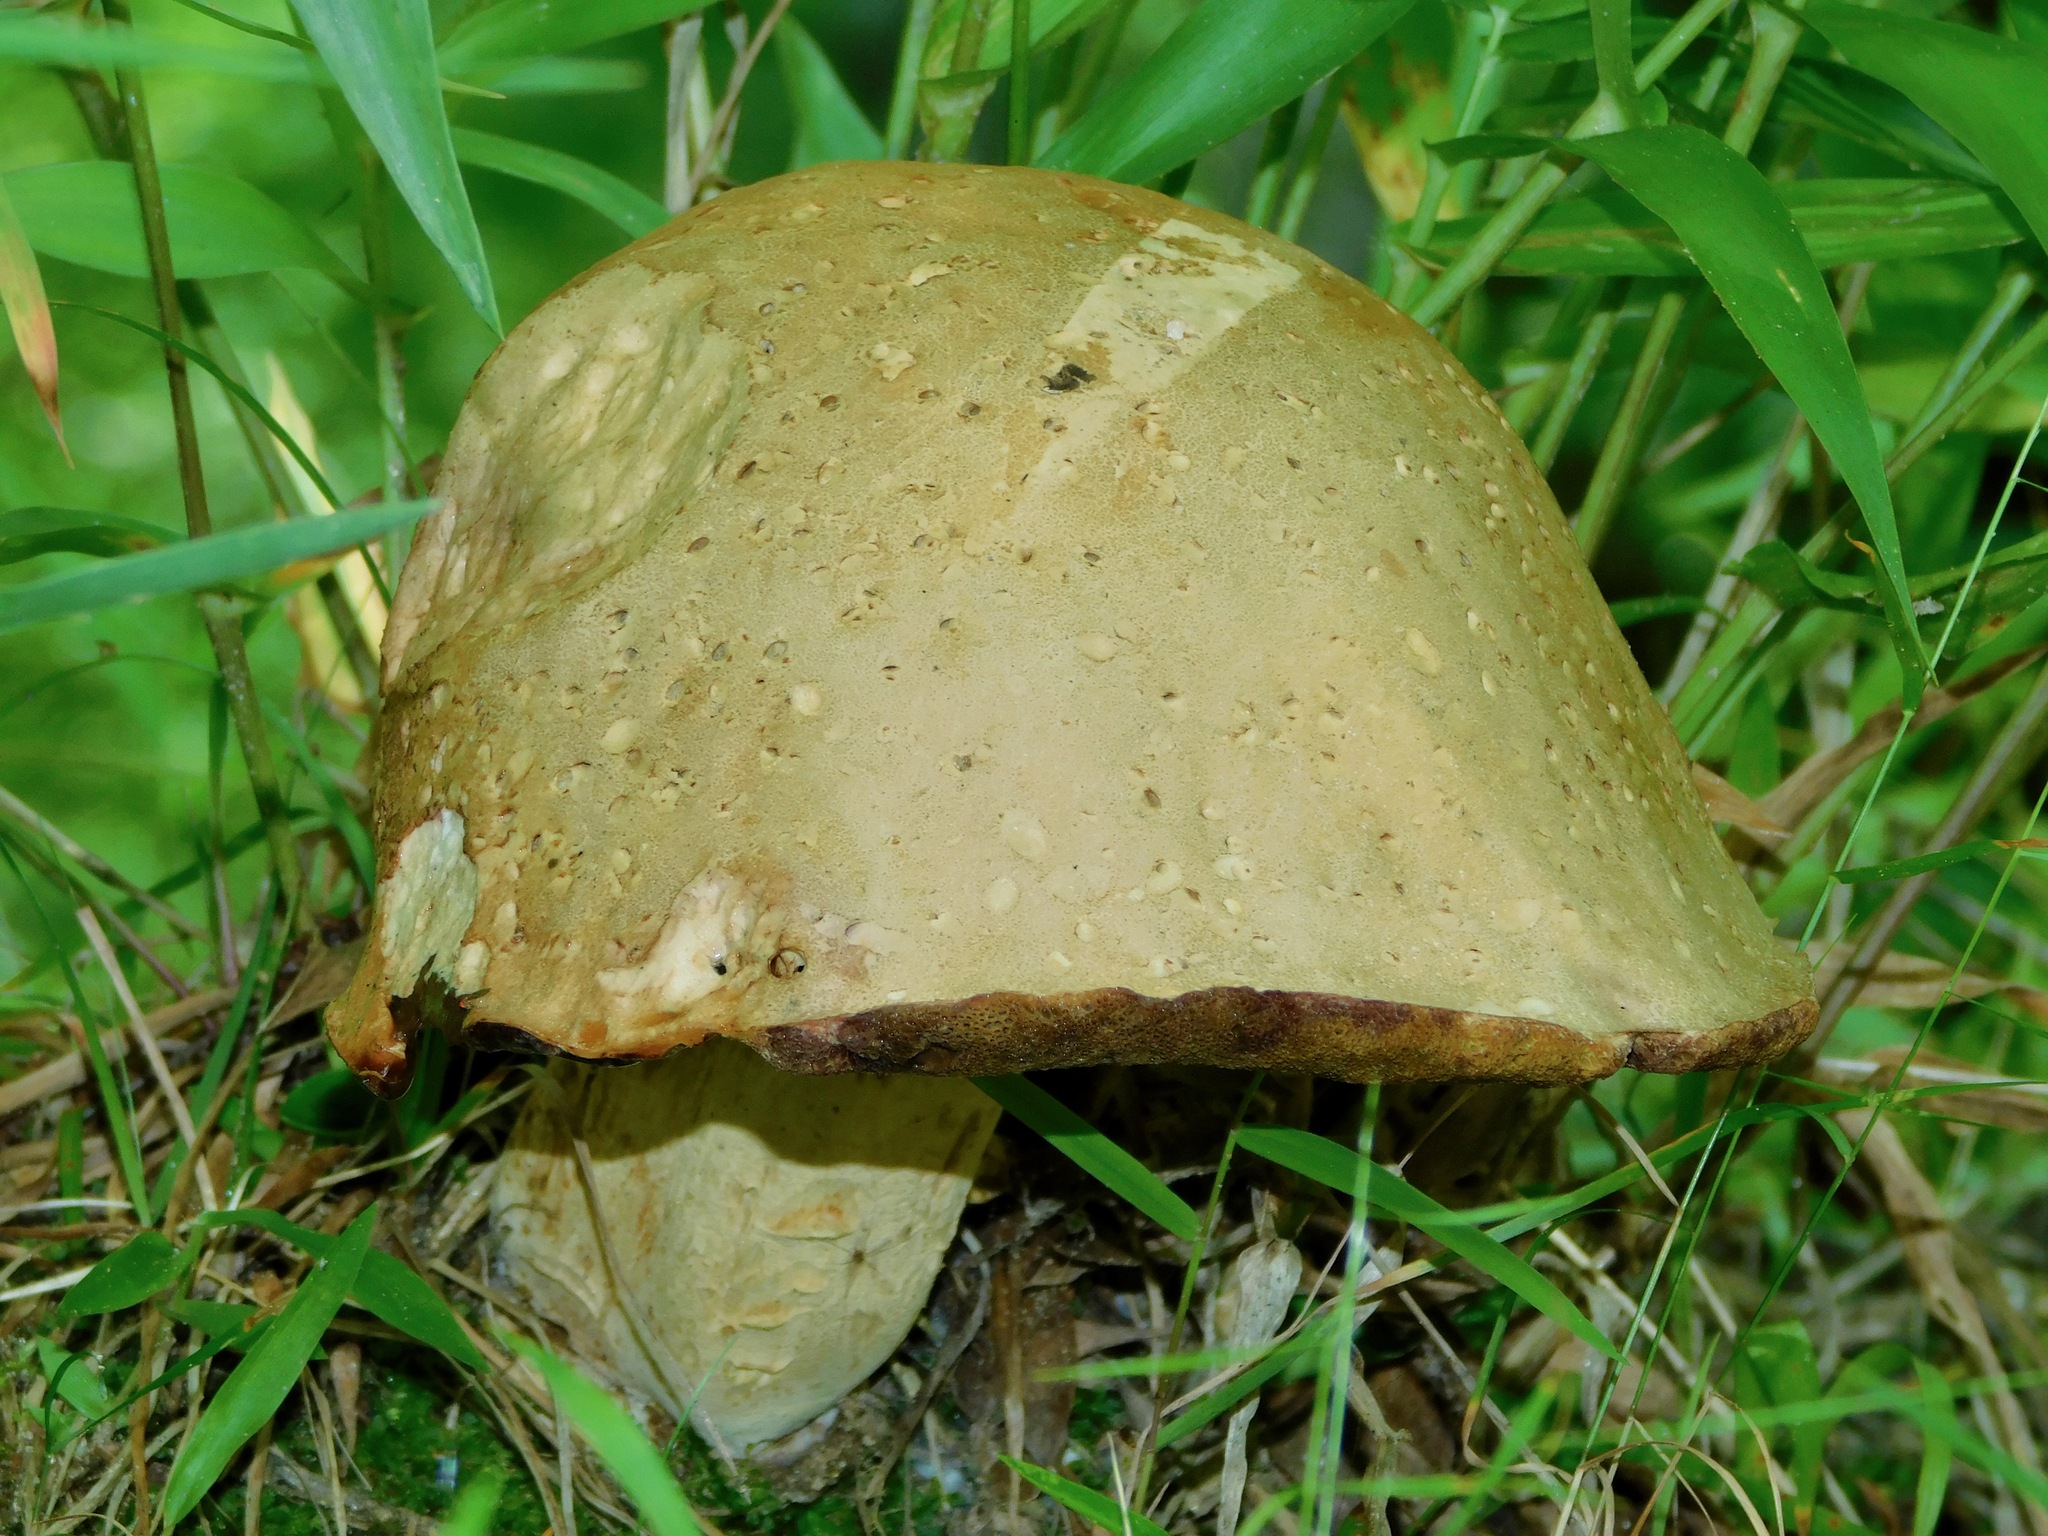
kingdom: Fungi
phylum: Basidiomycota
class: Agaricomycetes
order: Boletales
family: Boletaceae
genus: Pseudoboletus
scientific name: Pseudoboletus parasiticus
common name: Parasitic bolete
